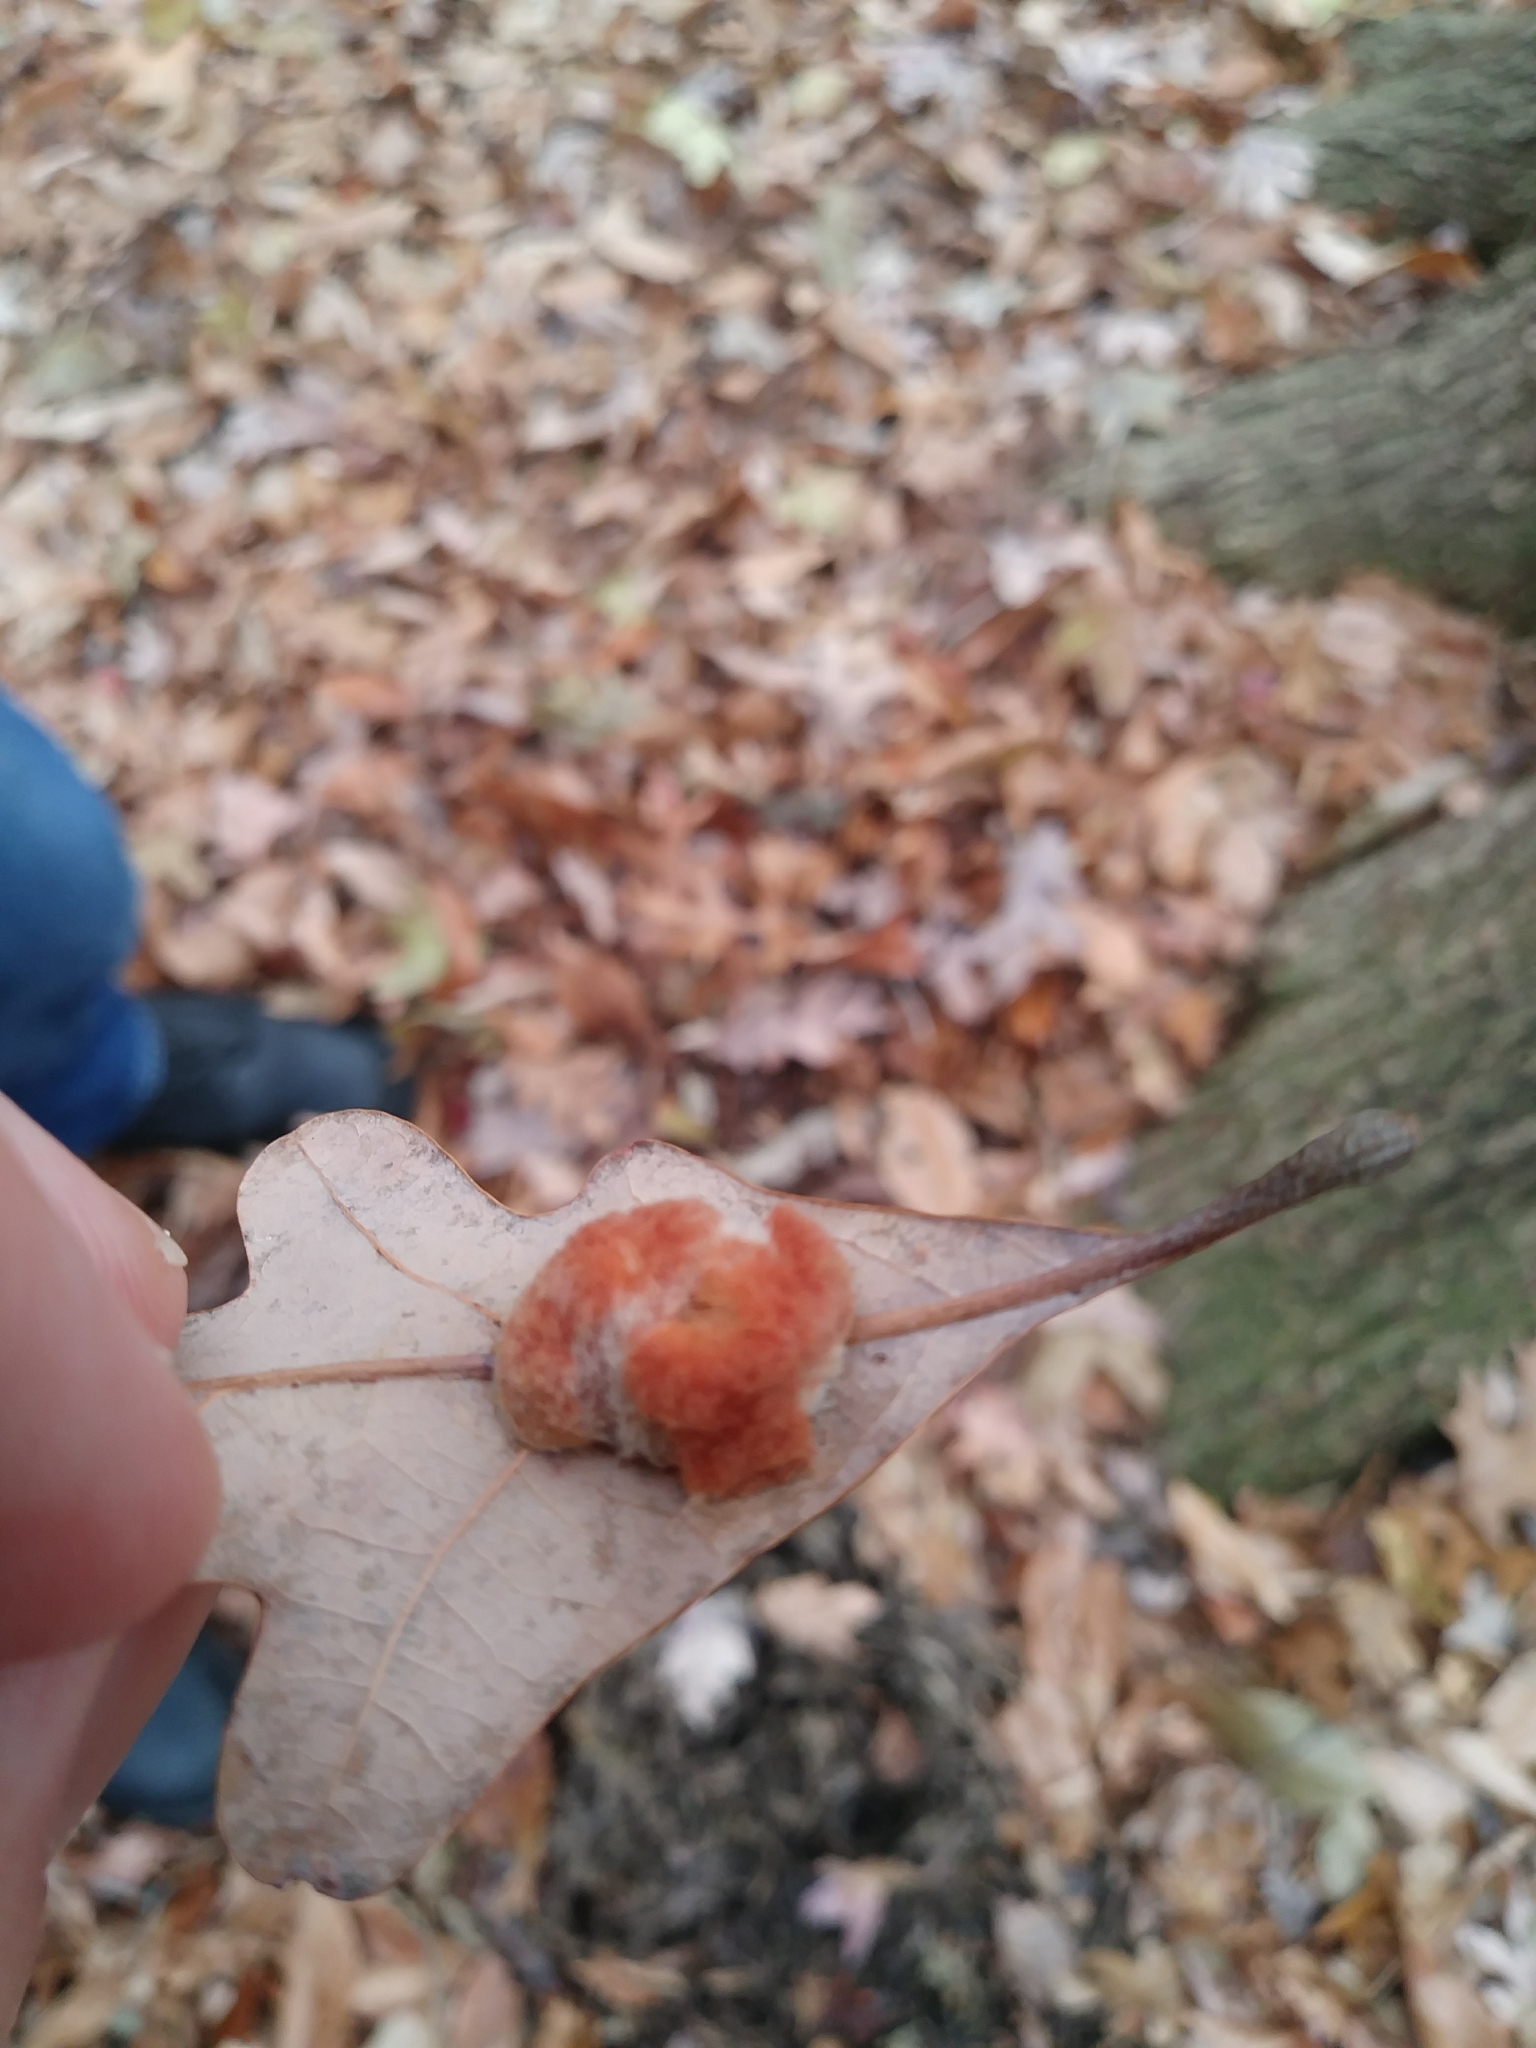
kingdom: Animalia
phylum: Arthropoda
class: Insecta
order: Hymenoptera
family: Cynipidae
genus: Andricus
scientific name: Andricus quercusflocci
